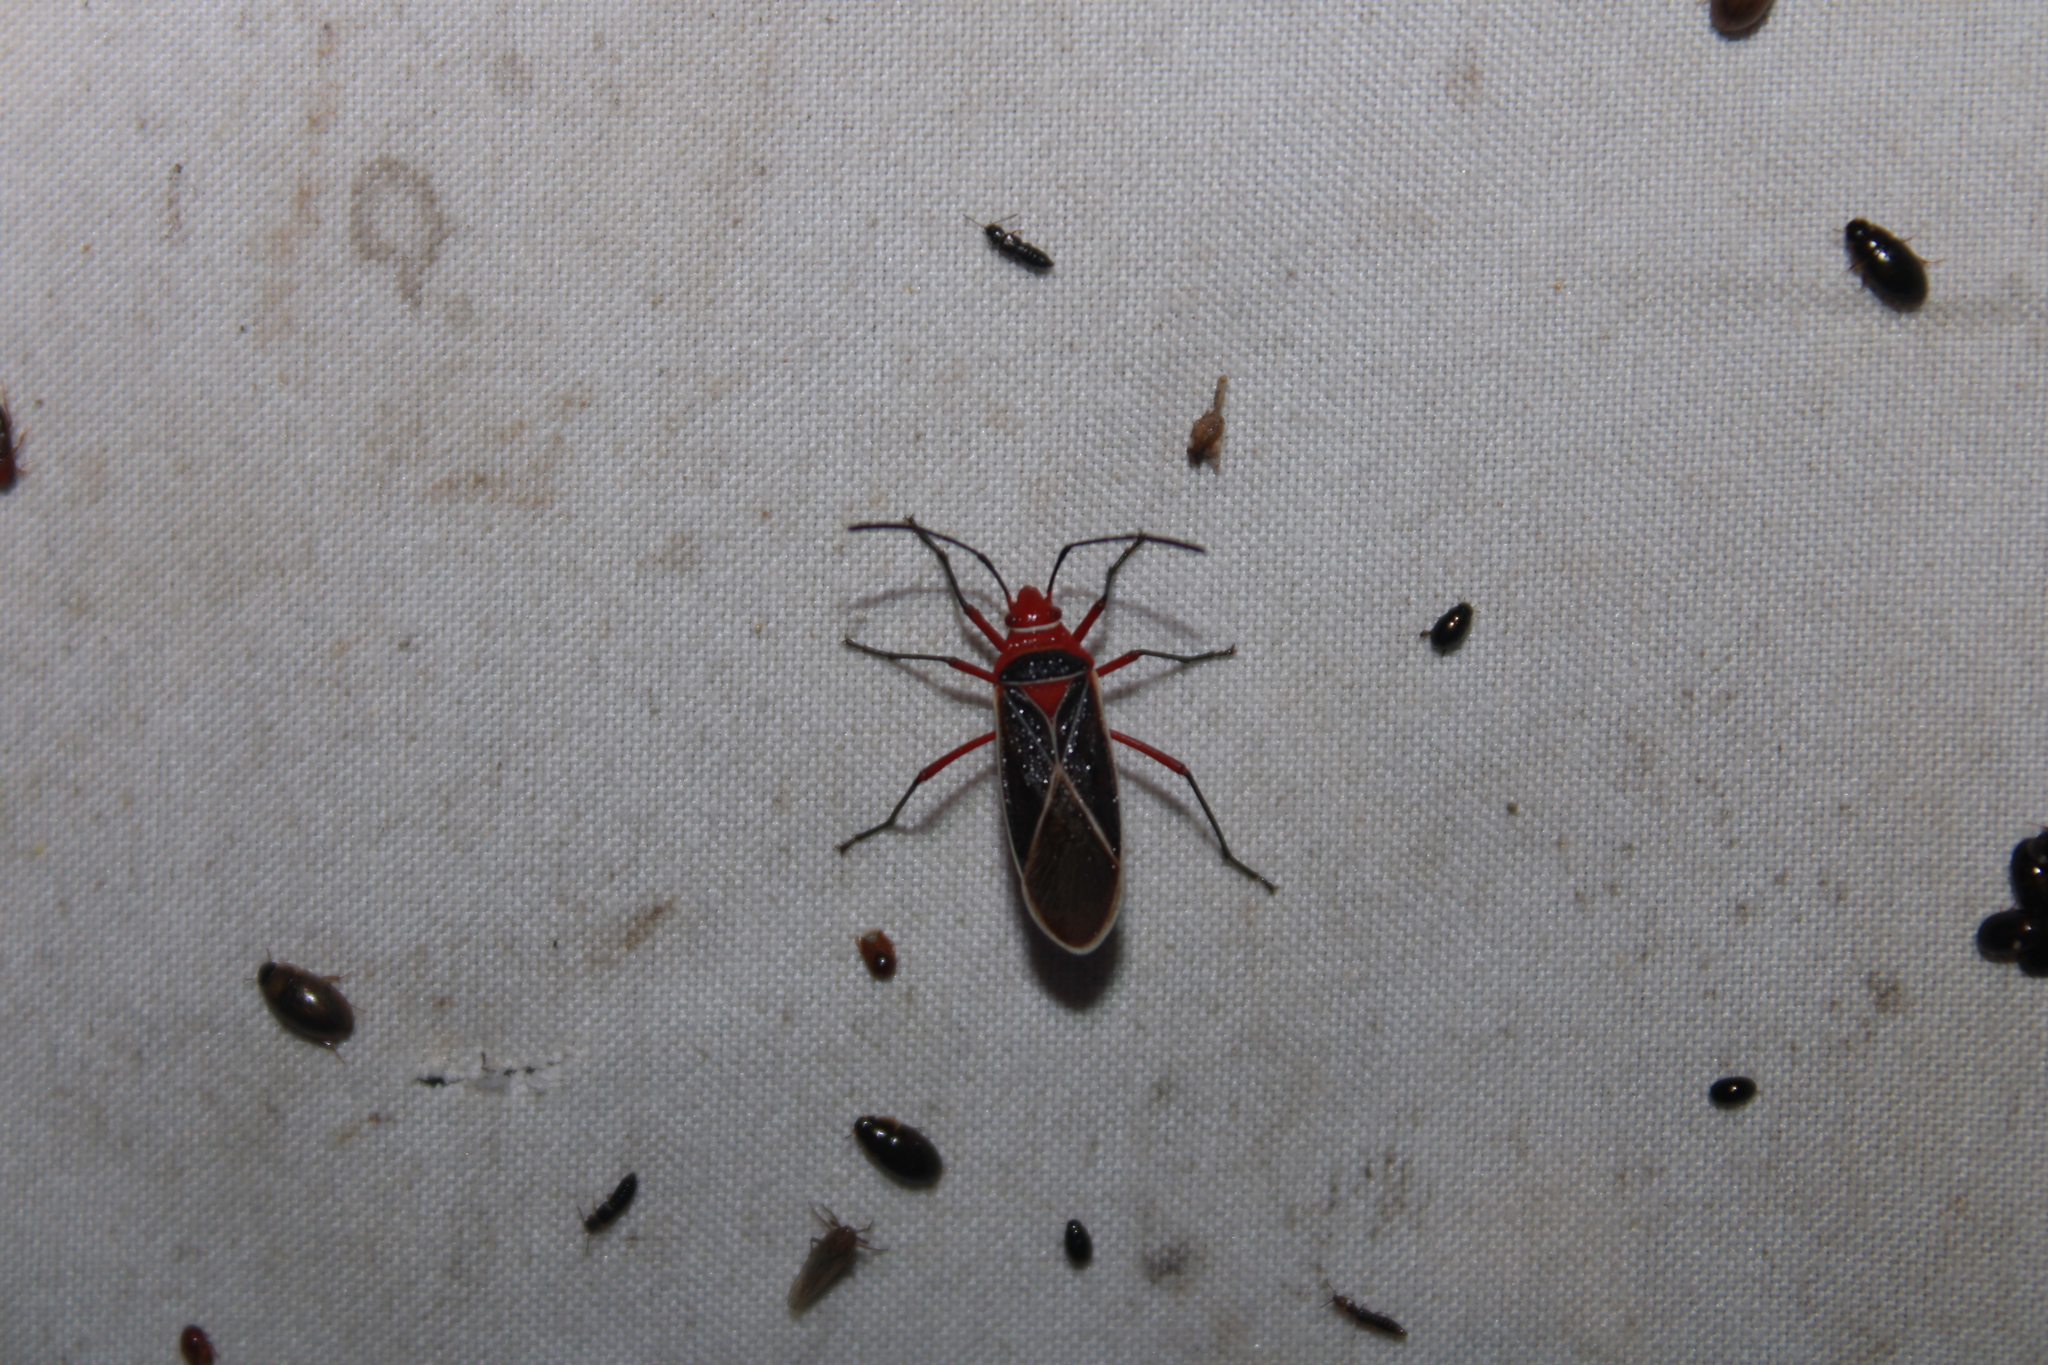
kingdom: Animalia
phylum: Arthropoda
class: Insecta
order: Hemiptera
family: Pyrrhocoridae
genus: Dysdercus
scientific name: Dysdercus suturellus
